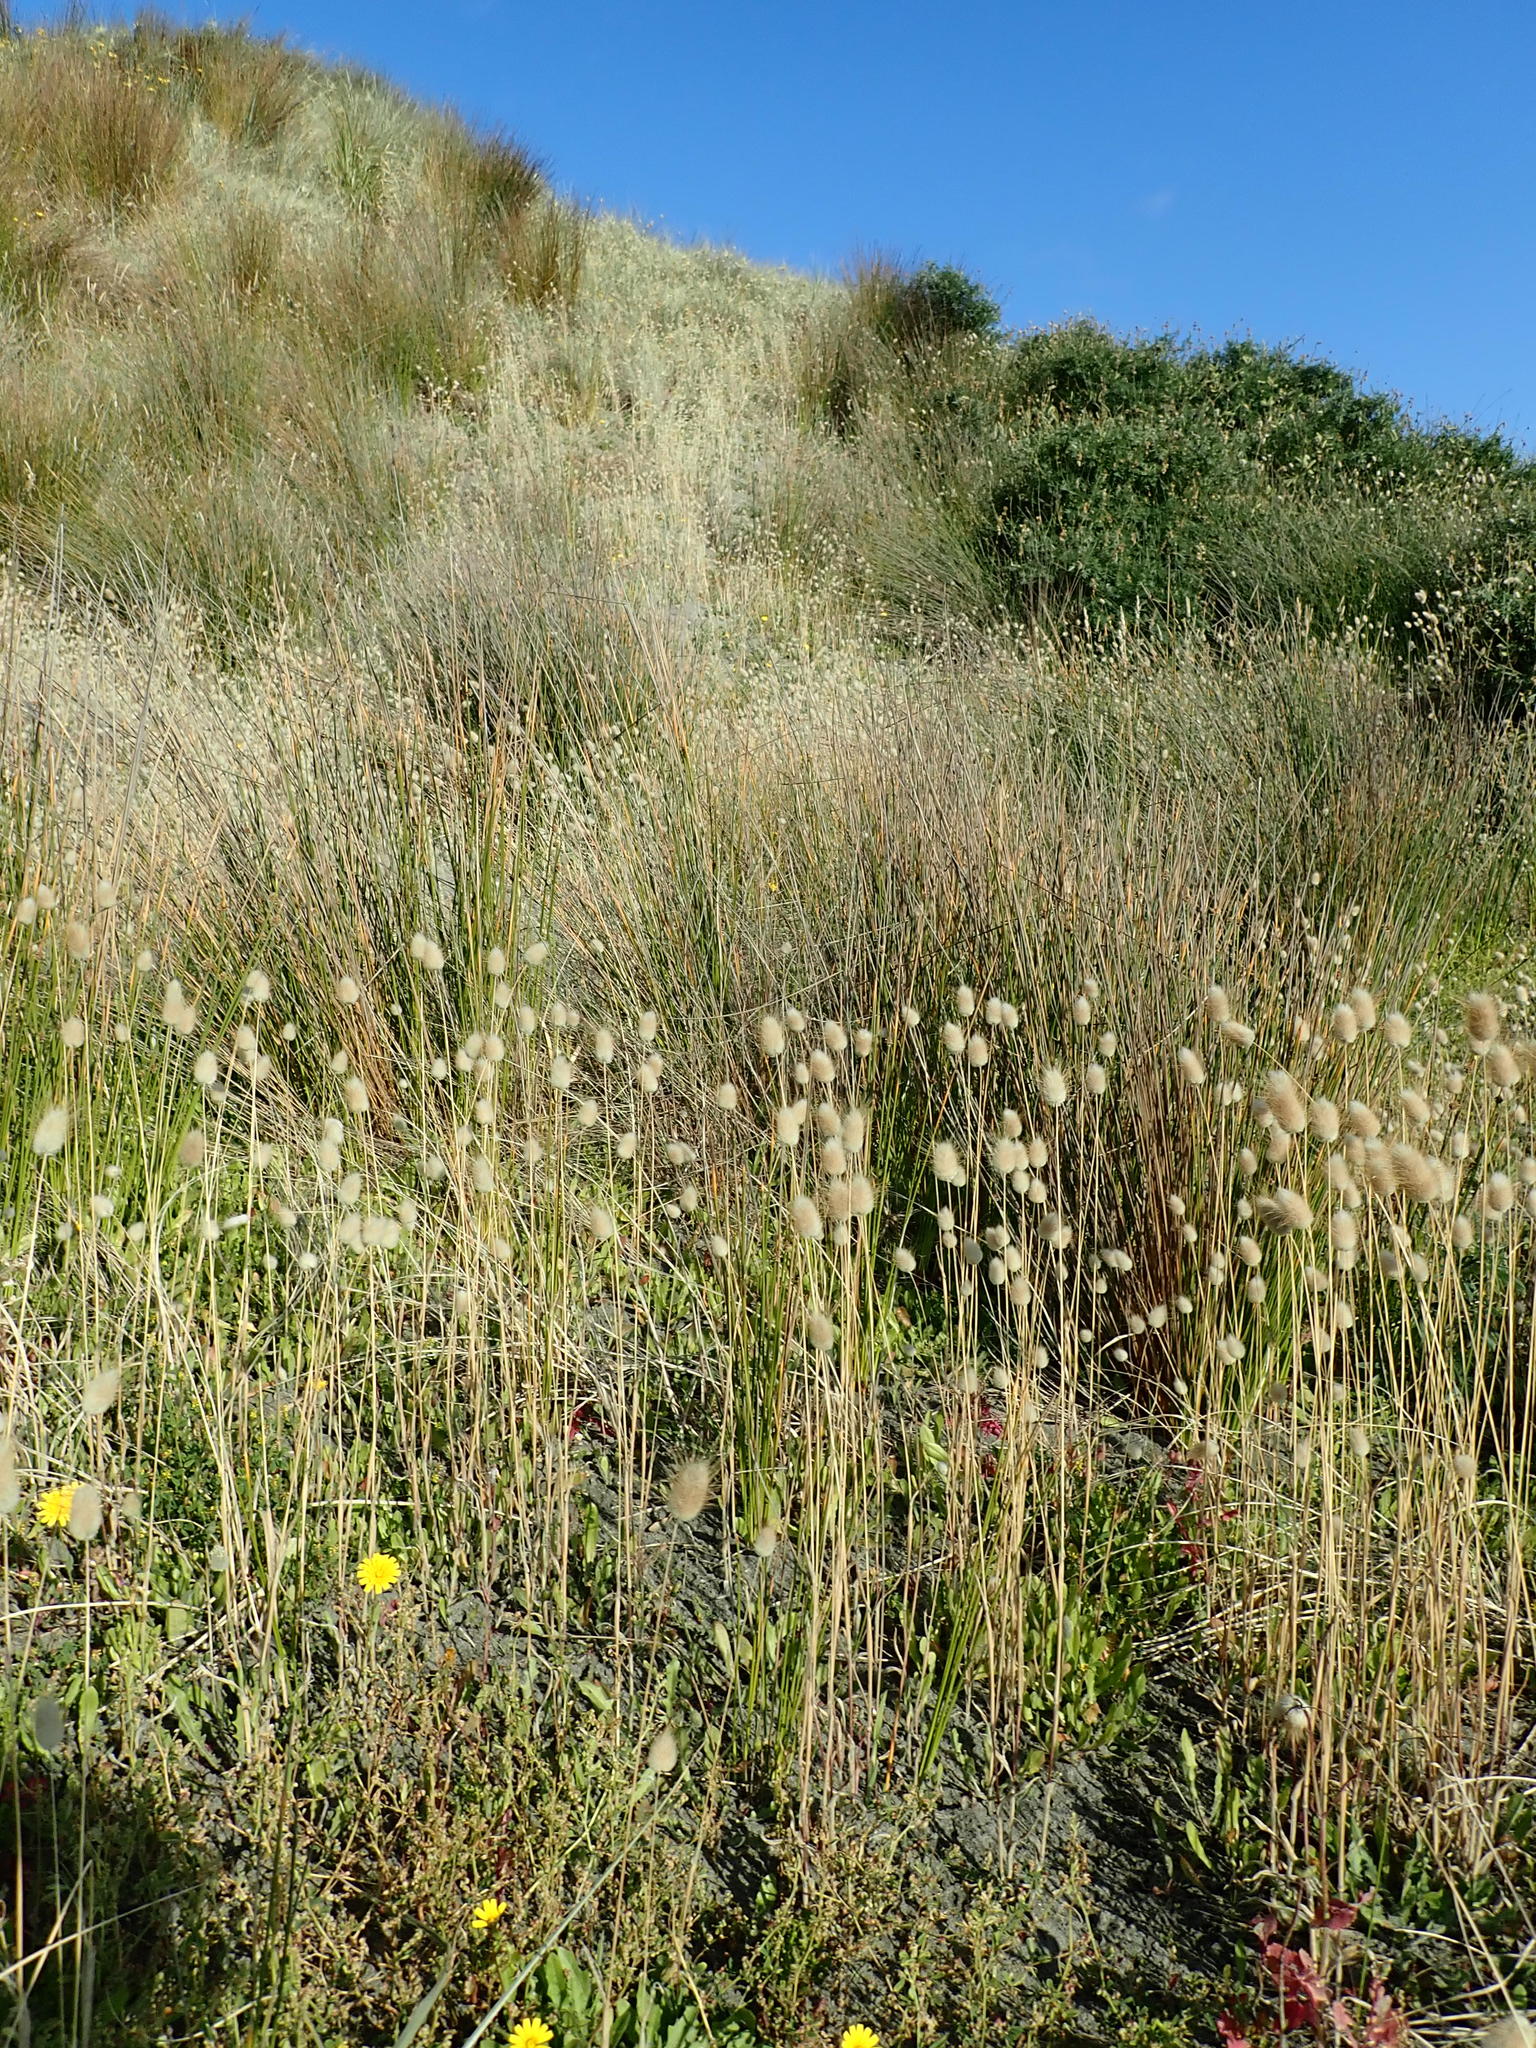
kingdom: Plantae
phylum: Tracheophyta
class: Liliopsida
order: Poales
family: Poaceae
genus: Lagurus
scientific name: Lagurus ovatus
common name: Hare's-tail
